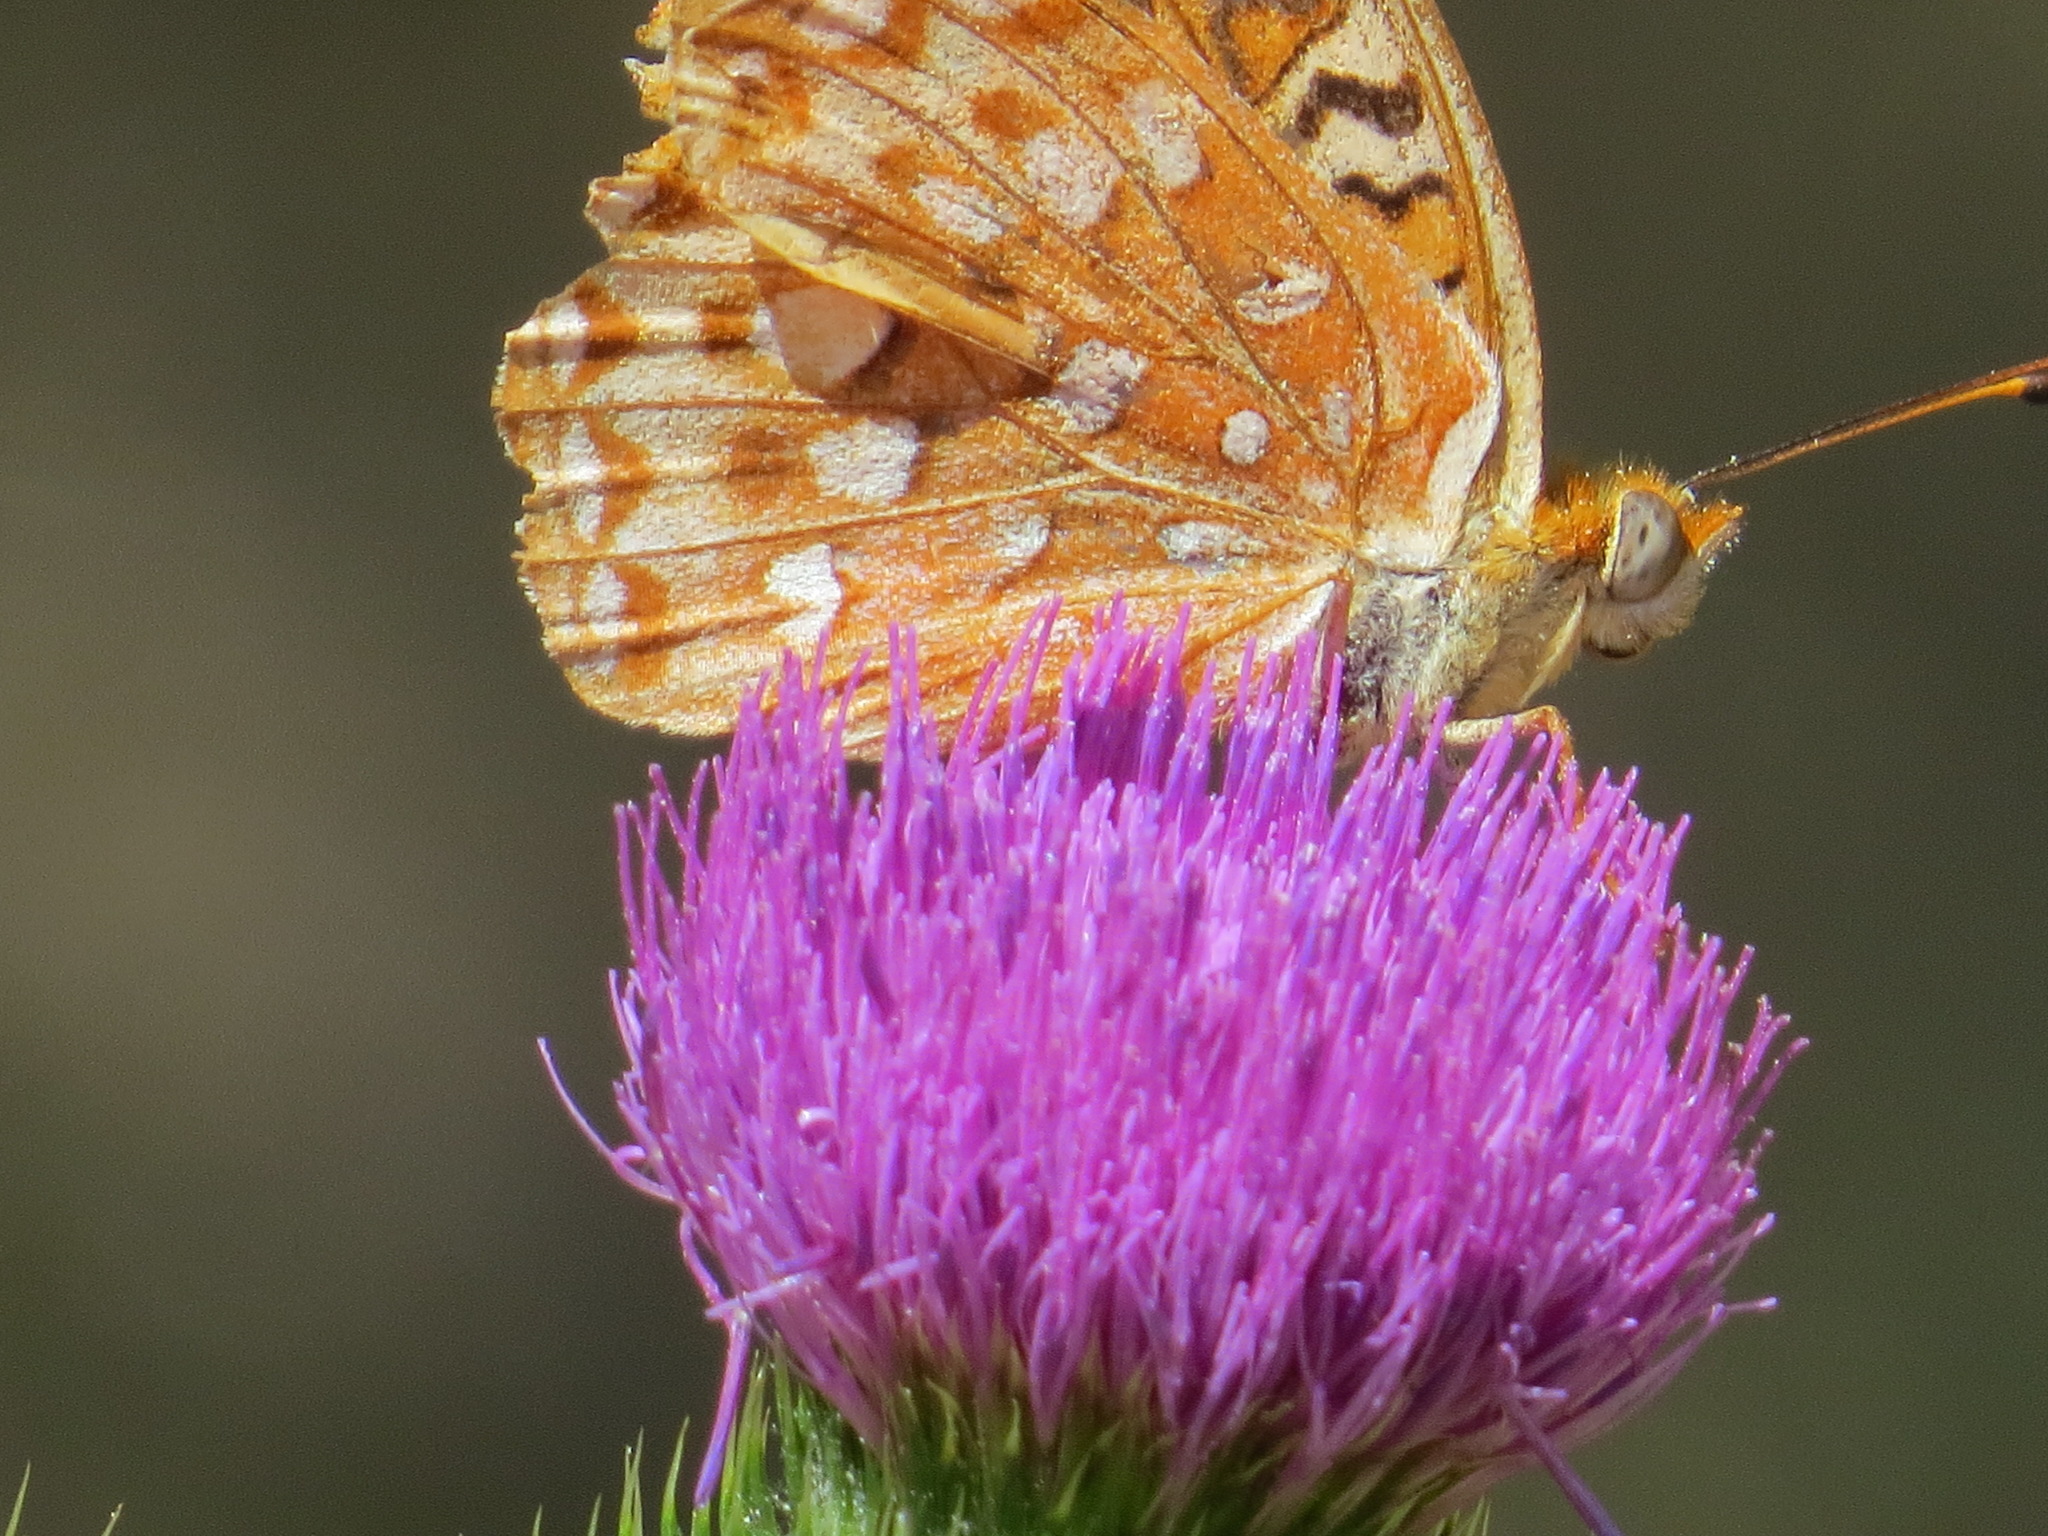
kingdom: Animalia
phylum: Arthropoda
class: Insecta
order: Lepidoptera
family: Nymphalidae
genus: Speyeria
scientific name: Speyeria zerene
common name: Zerene fritillary
